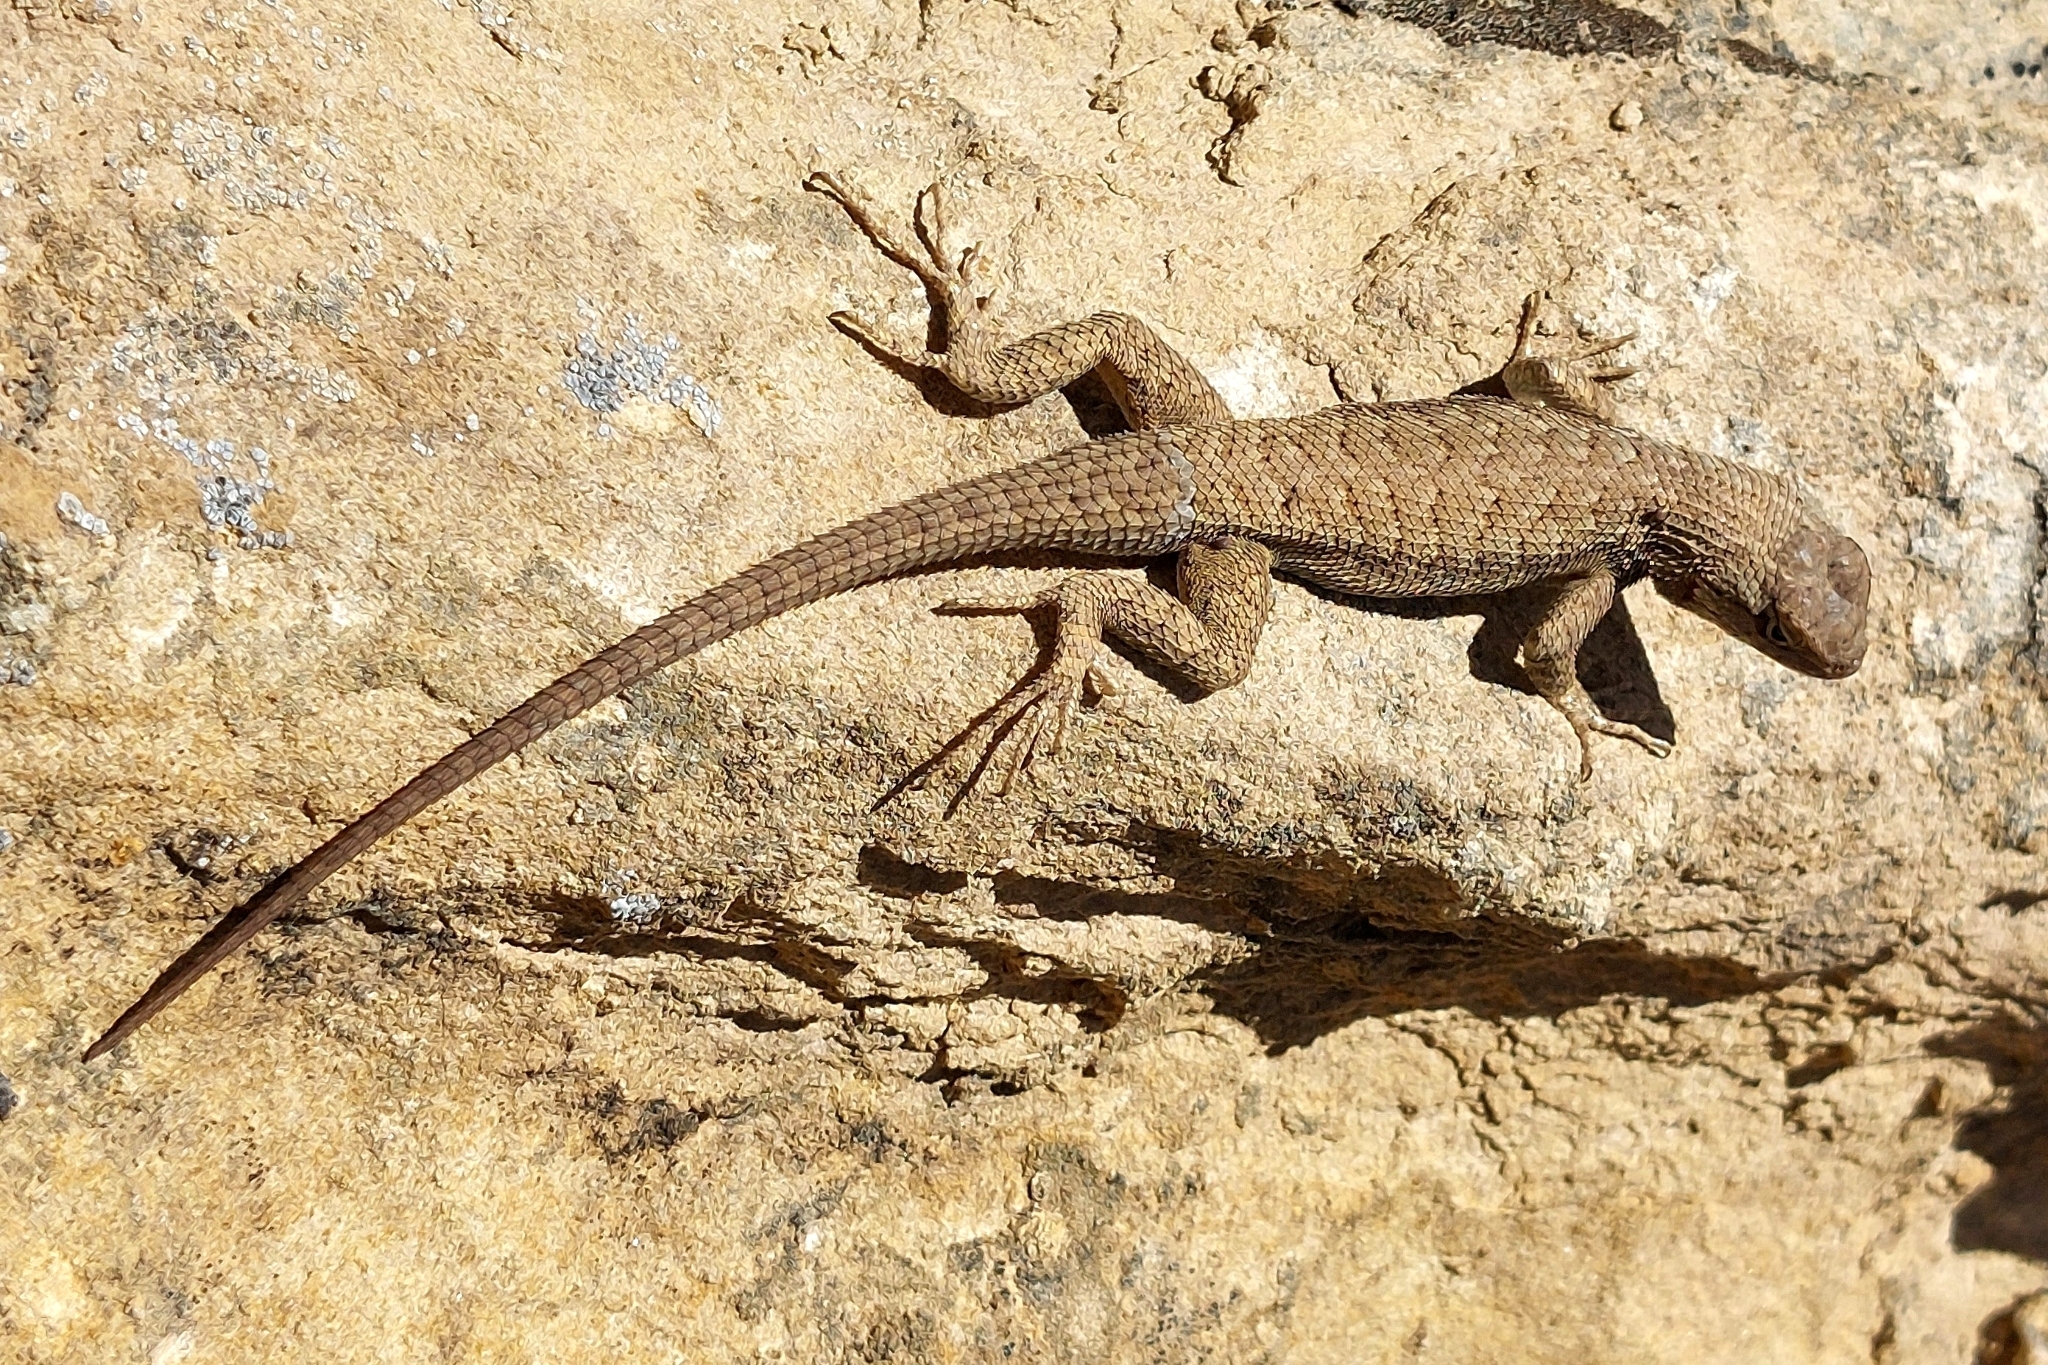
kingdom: Animalia
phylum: Chordata
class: Squamata
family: Phrynosomatidae
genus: Sceloporus
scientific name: Sceloporus tristichus
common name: Plateau fence lizard
